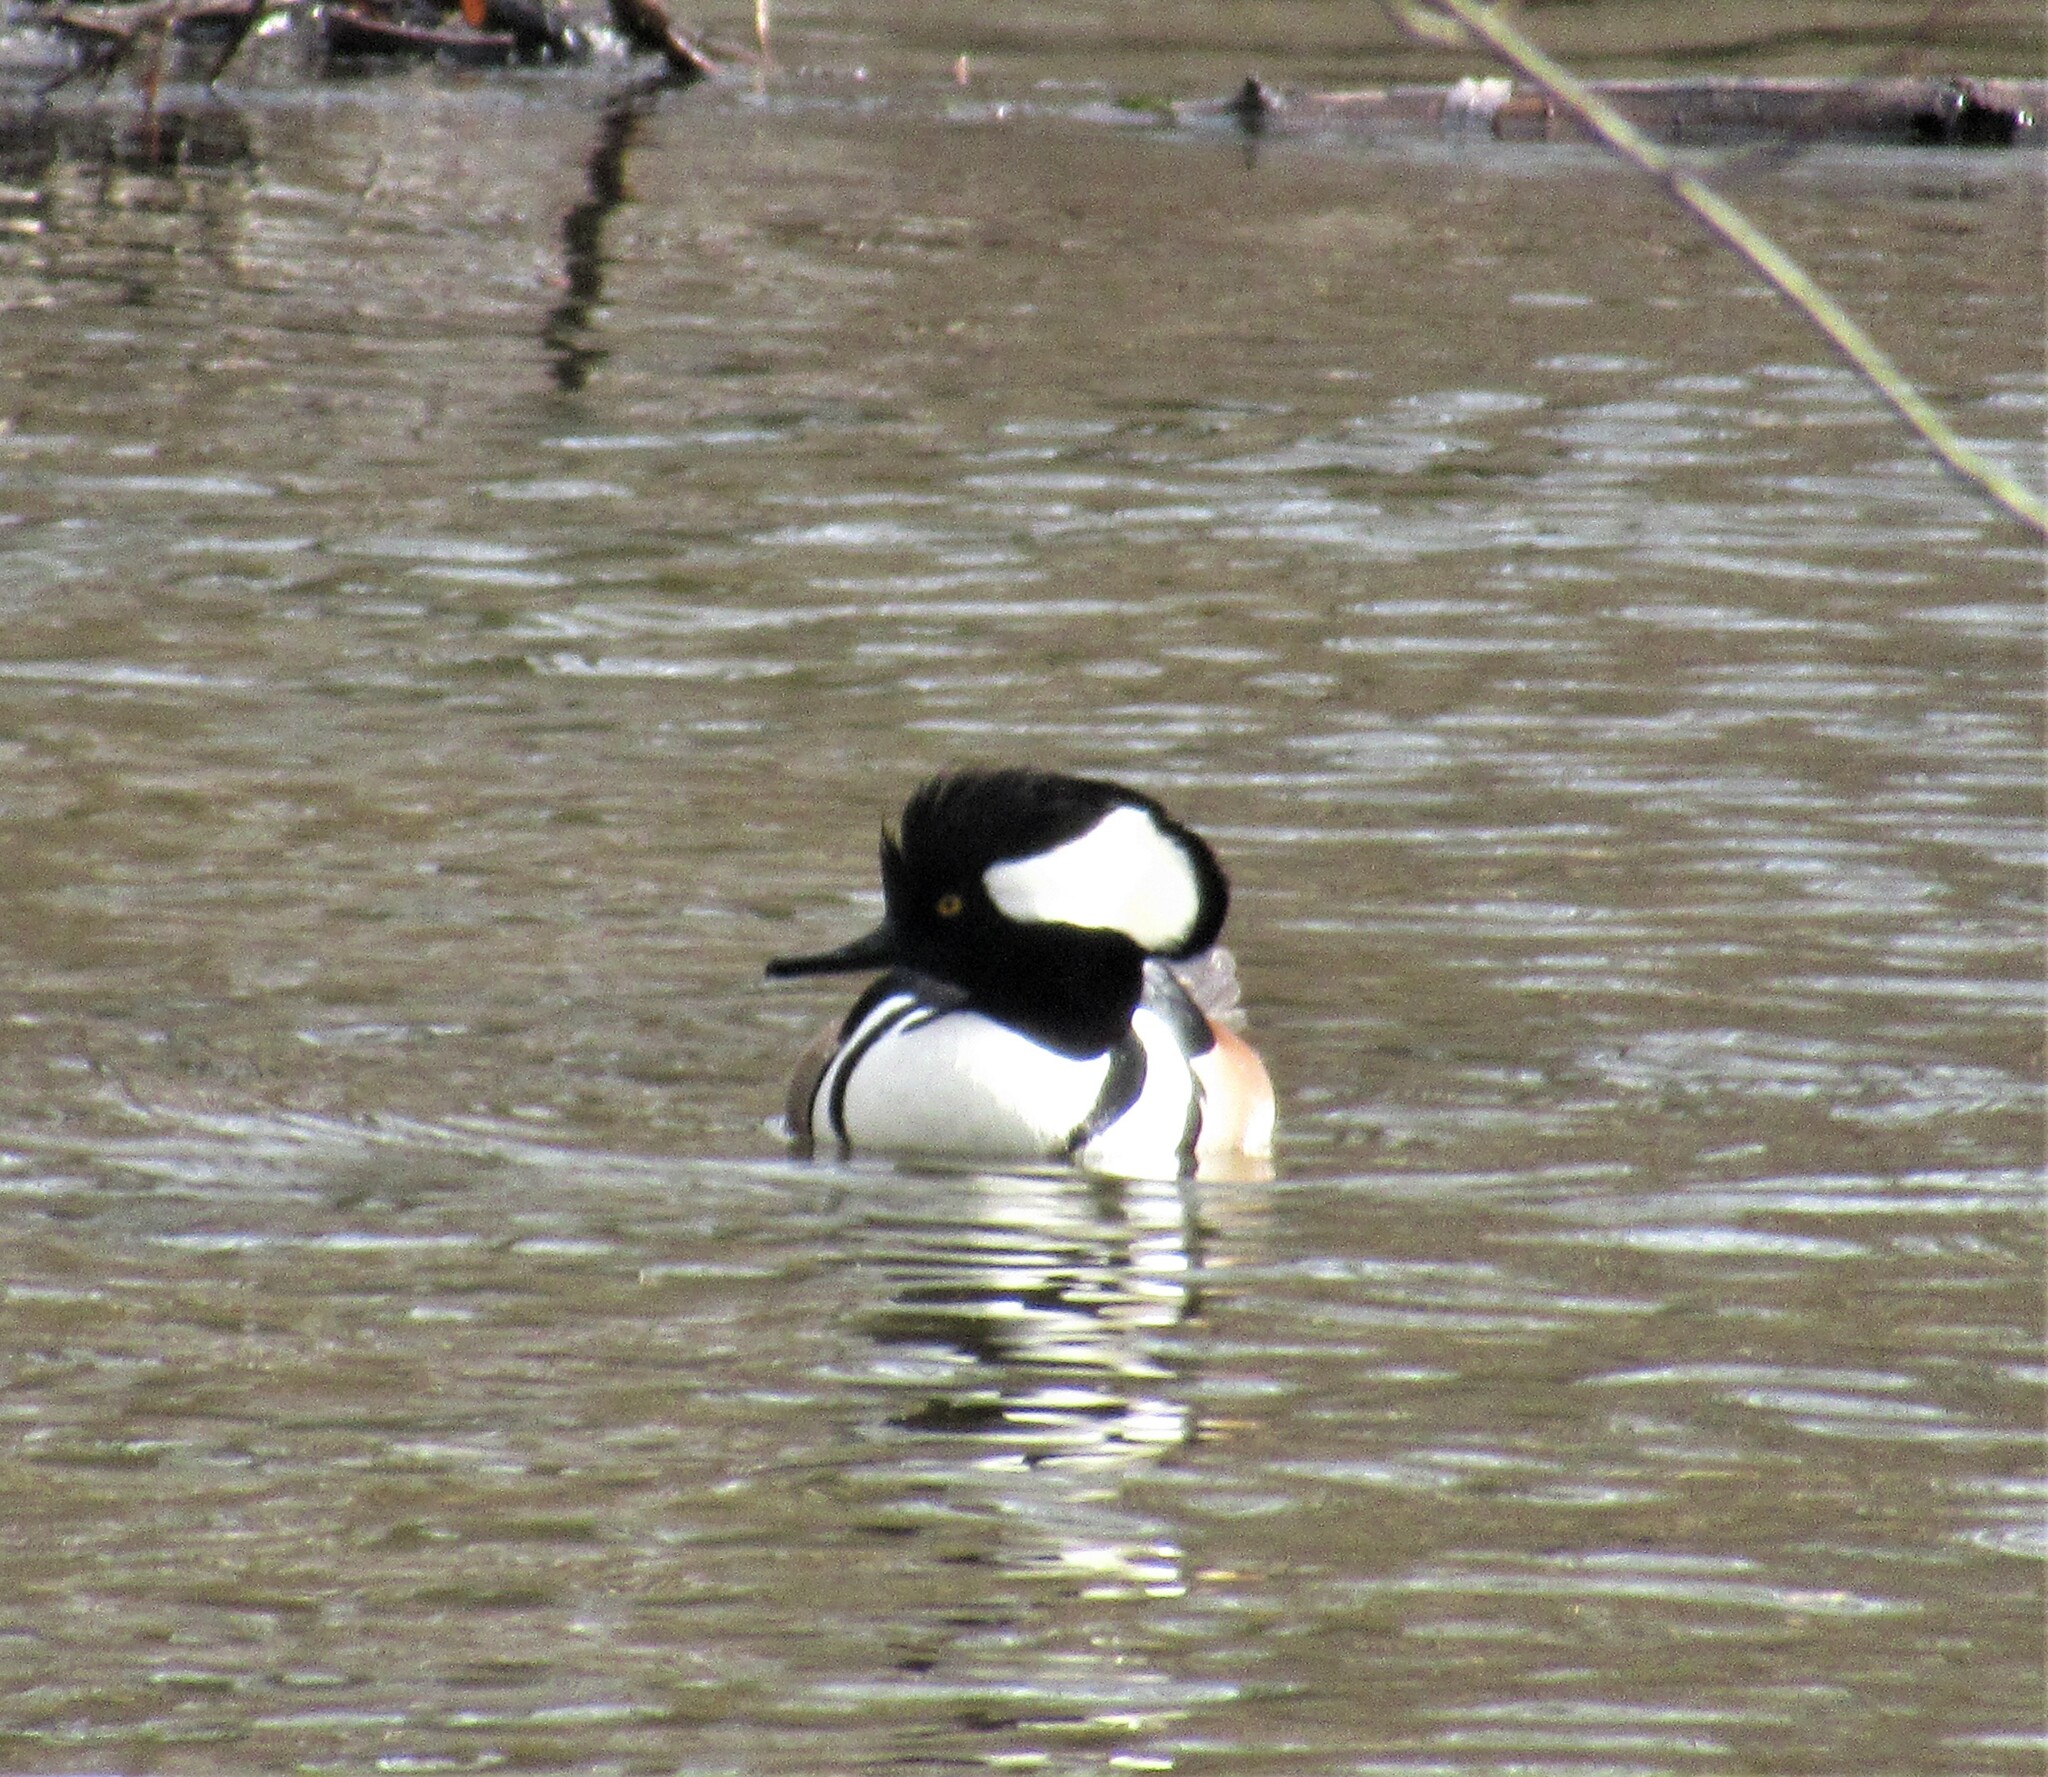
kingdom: Animalia
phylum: Chordata
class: Aves
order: Anseriformes
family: Anatidae
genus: Lophodytes
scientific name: Lophodytes cucullatus
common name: Hooded merganser
